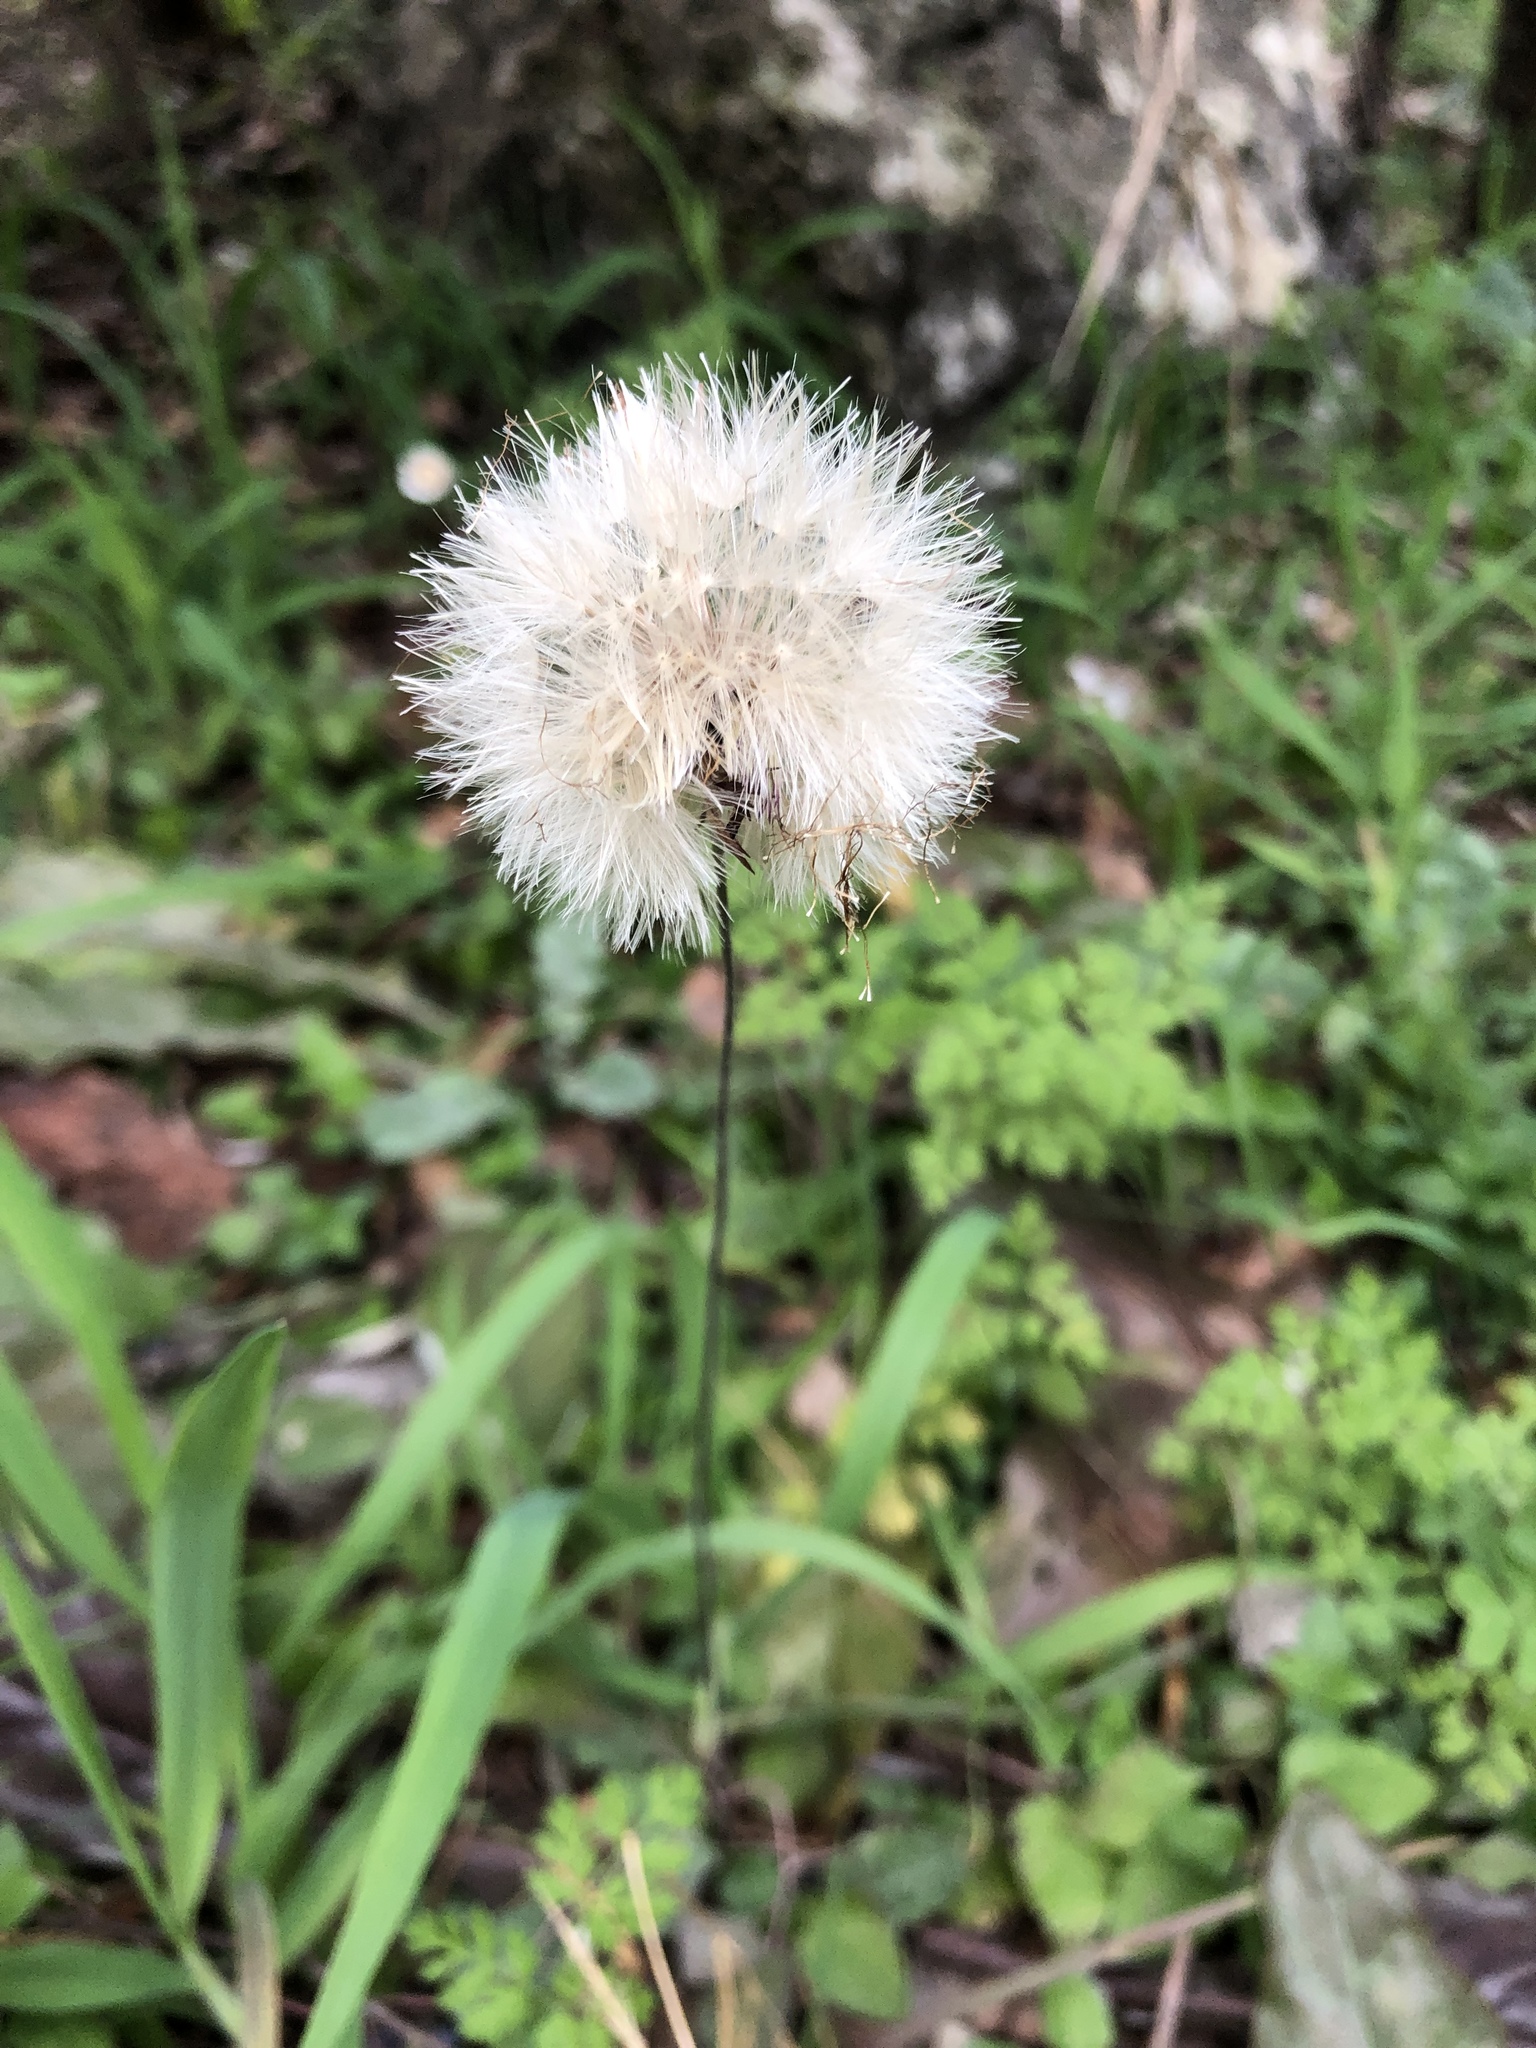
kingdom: Plantae
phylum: Tracheophyta
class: Magnoliopsida
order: Asterales
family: Asteraceae
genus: Chaptalia
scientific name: Chaptalia texana
